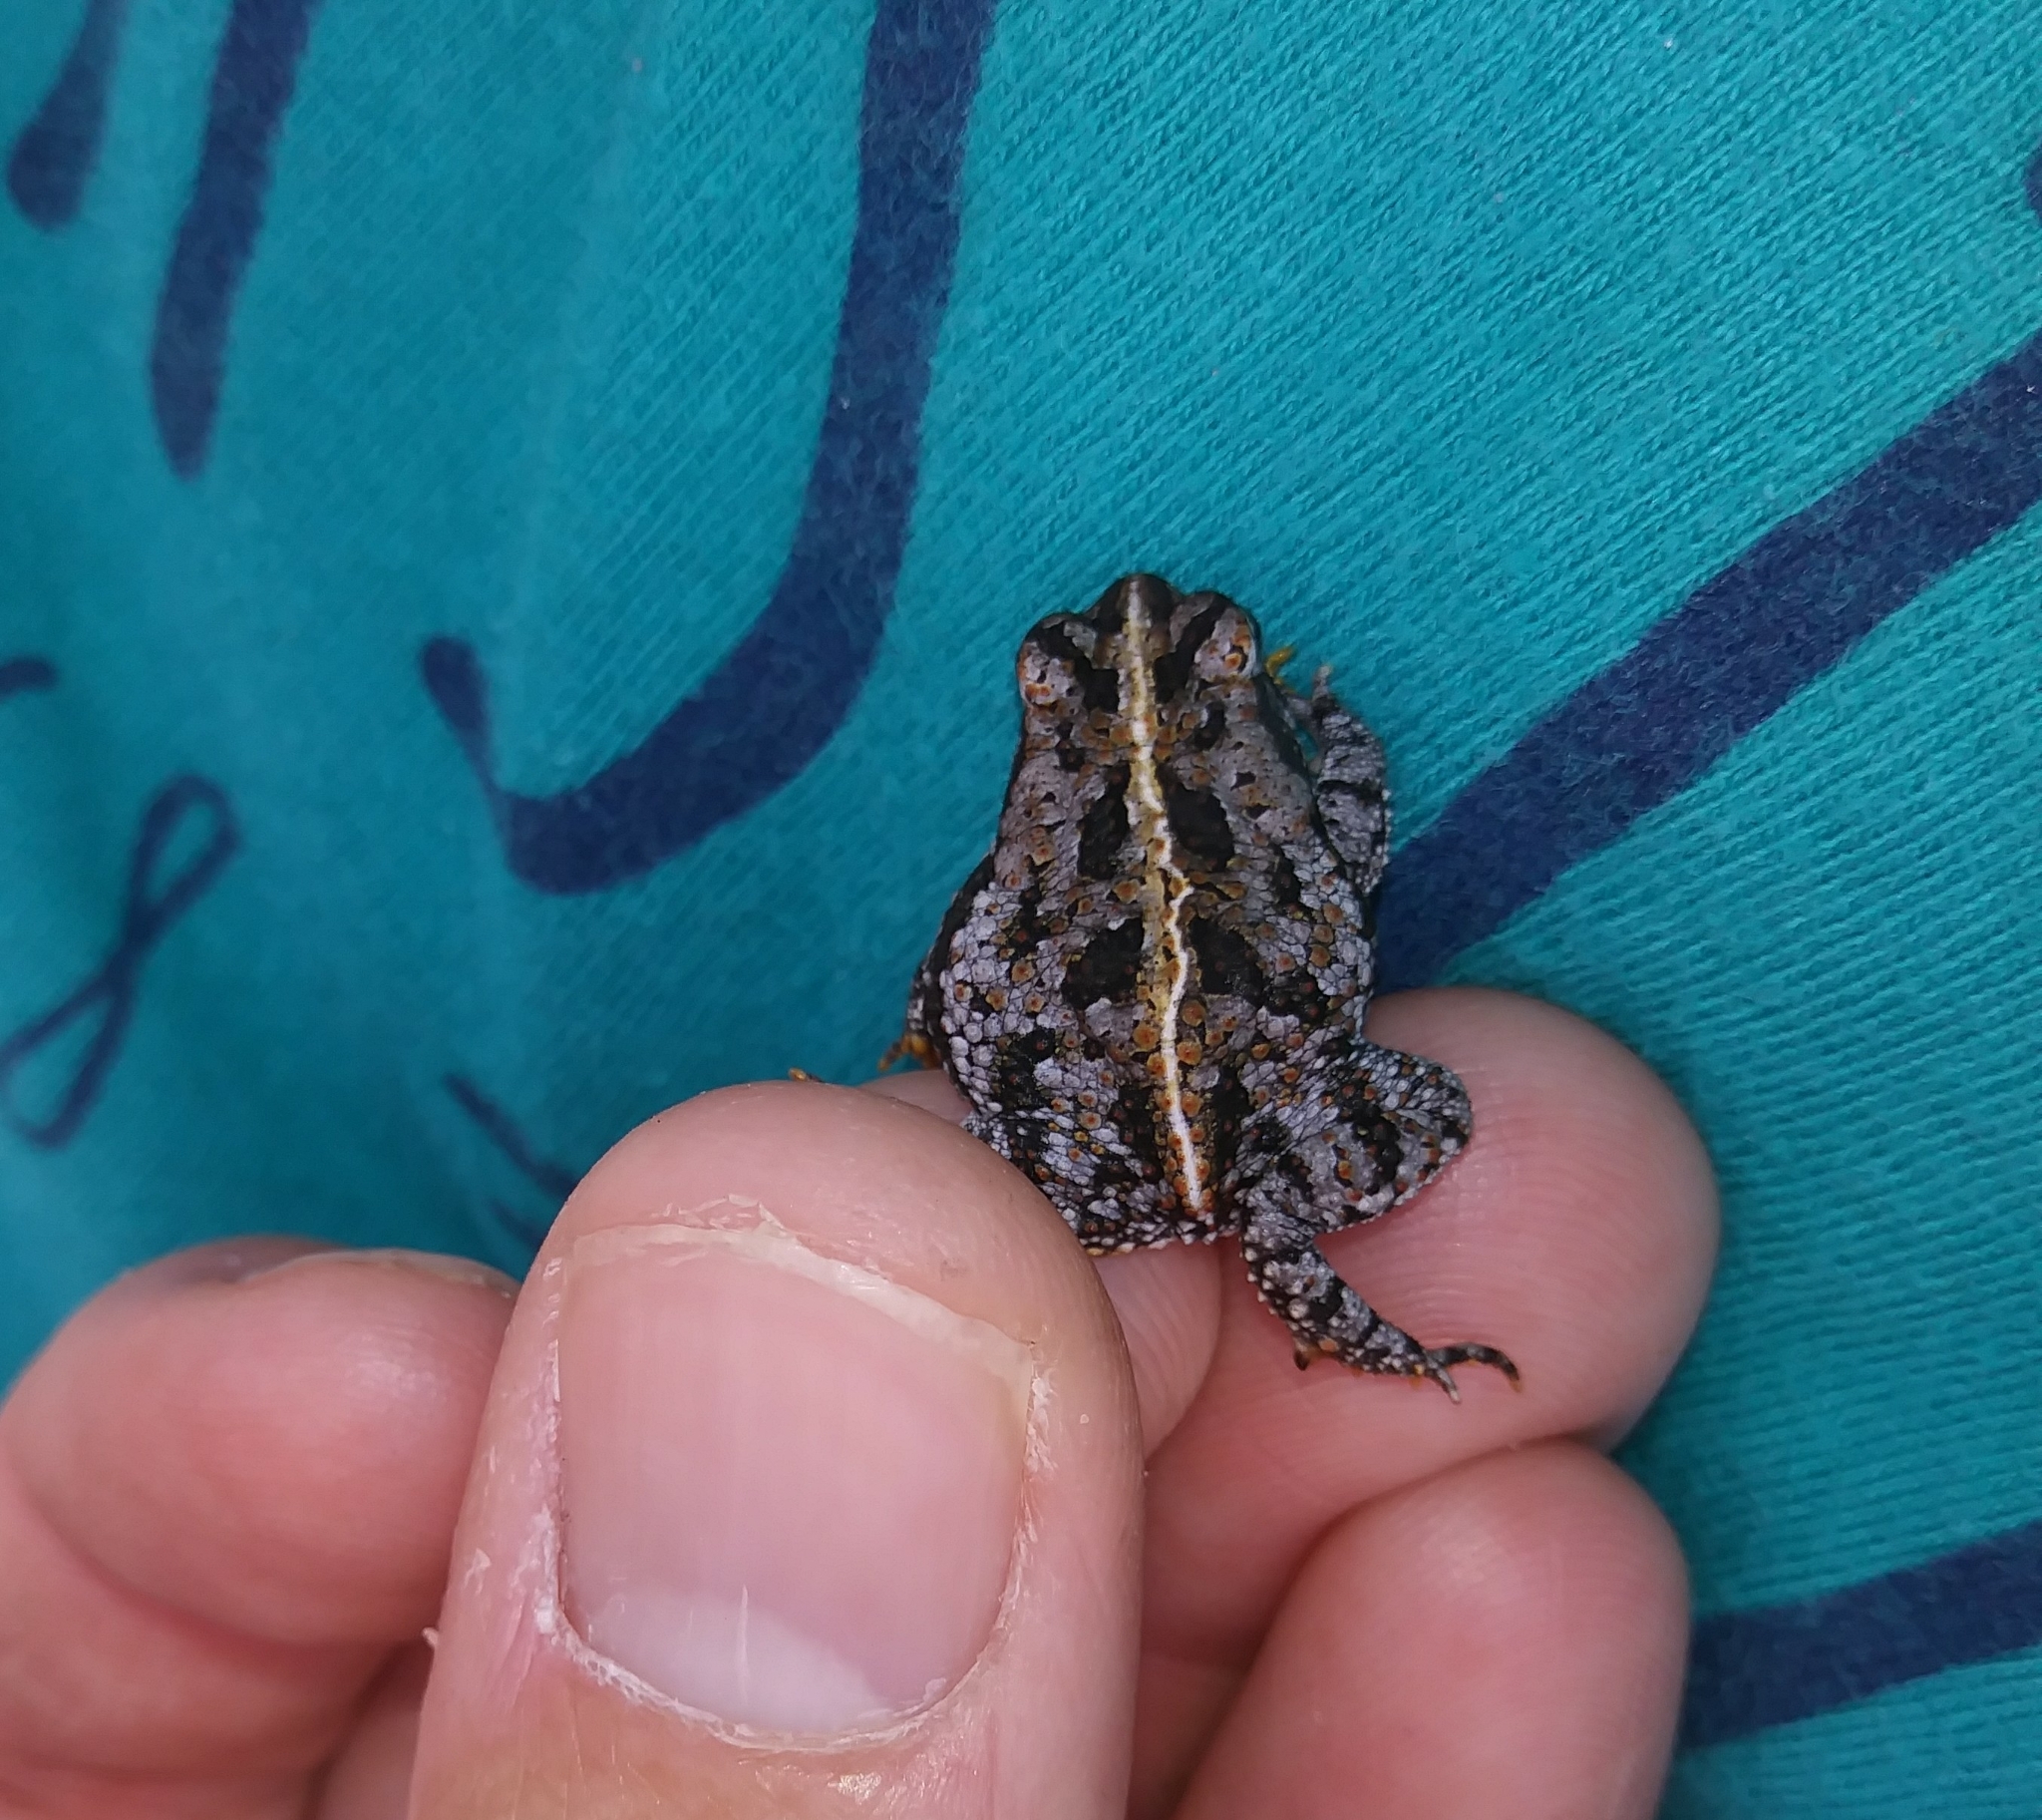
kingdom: Animalia
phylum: Chordata
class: Amphibia
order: Anura
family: Bufonidae
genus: Anaxyrus
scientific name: Anaxyrus quercicus
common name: Oak toad
